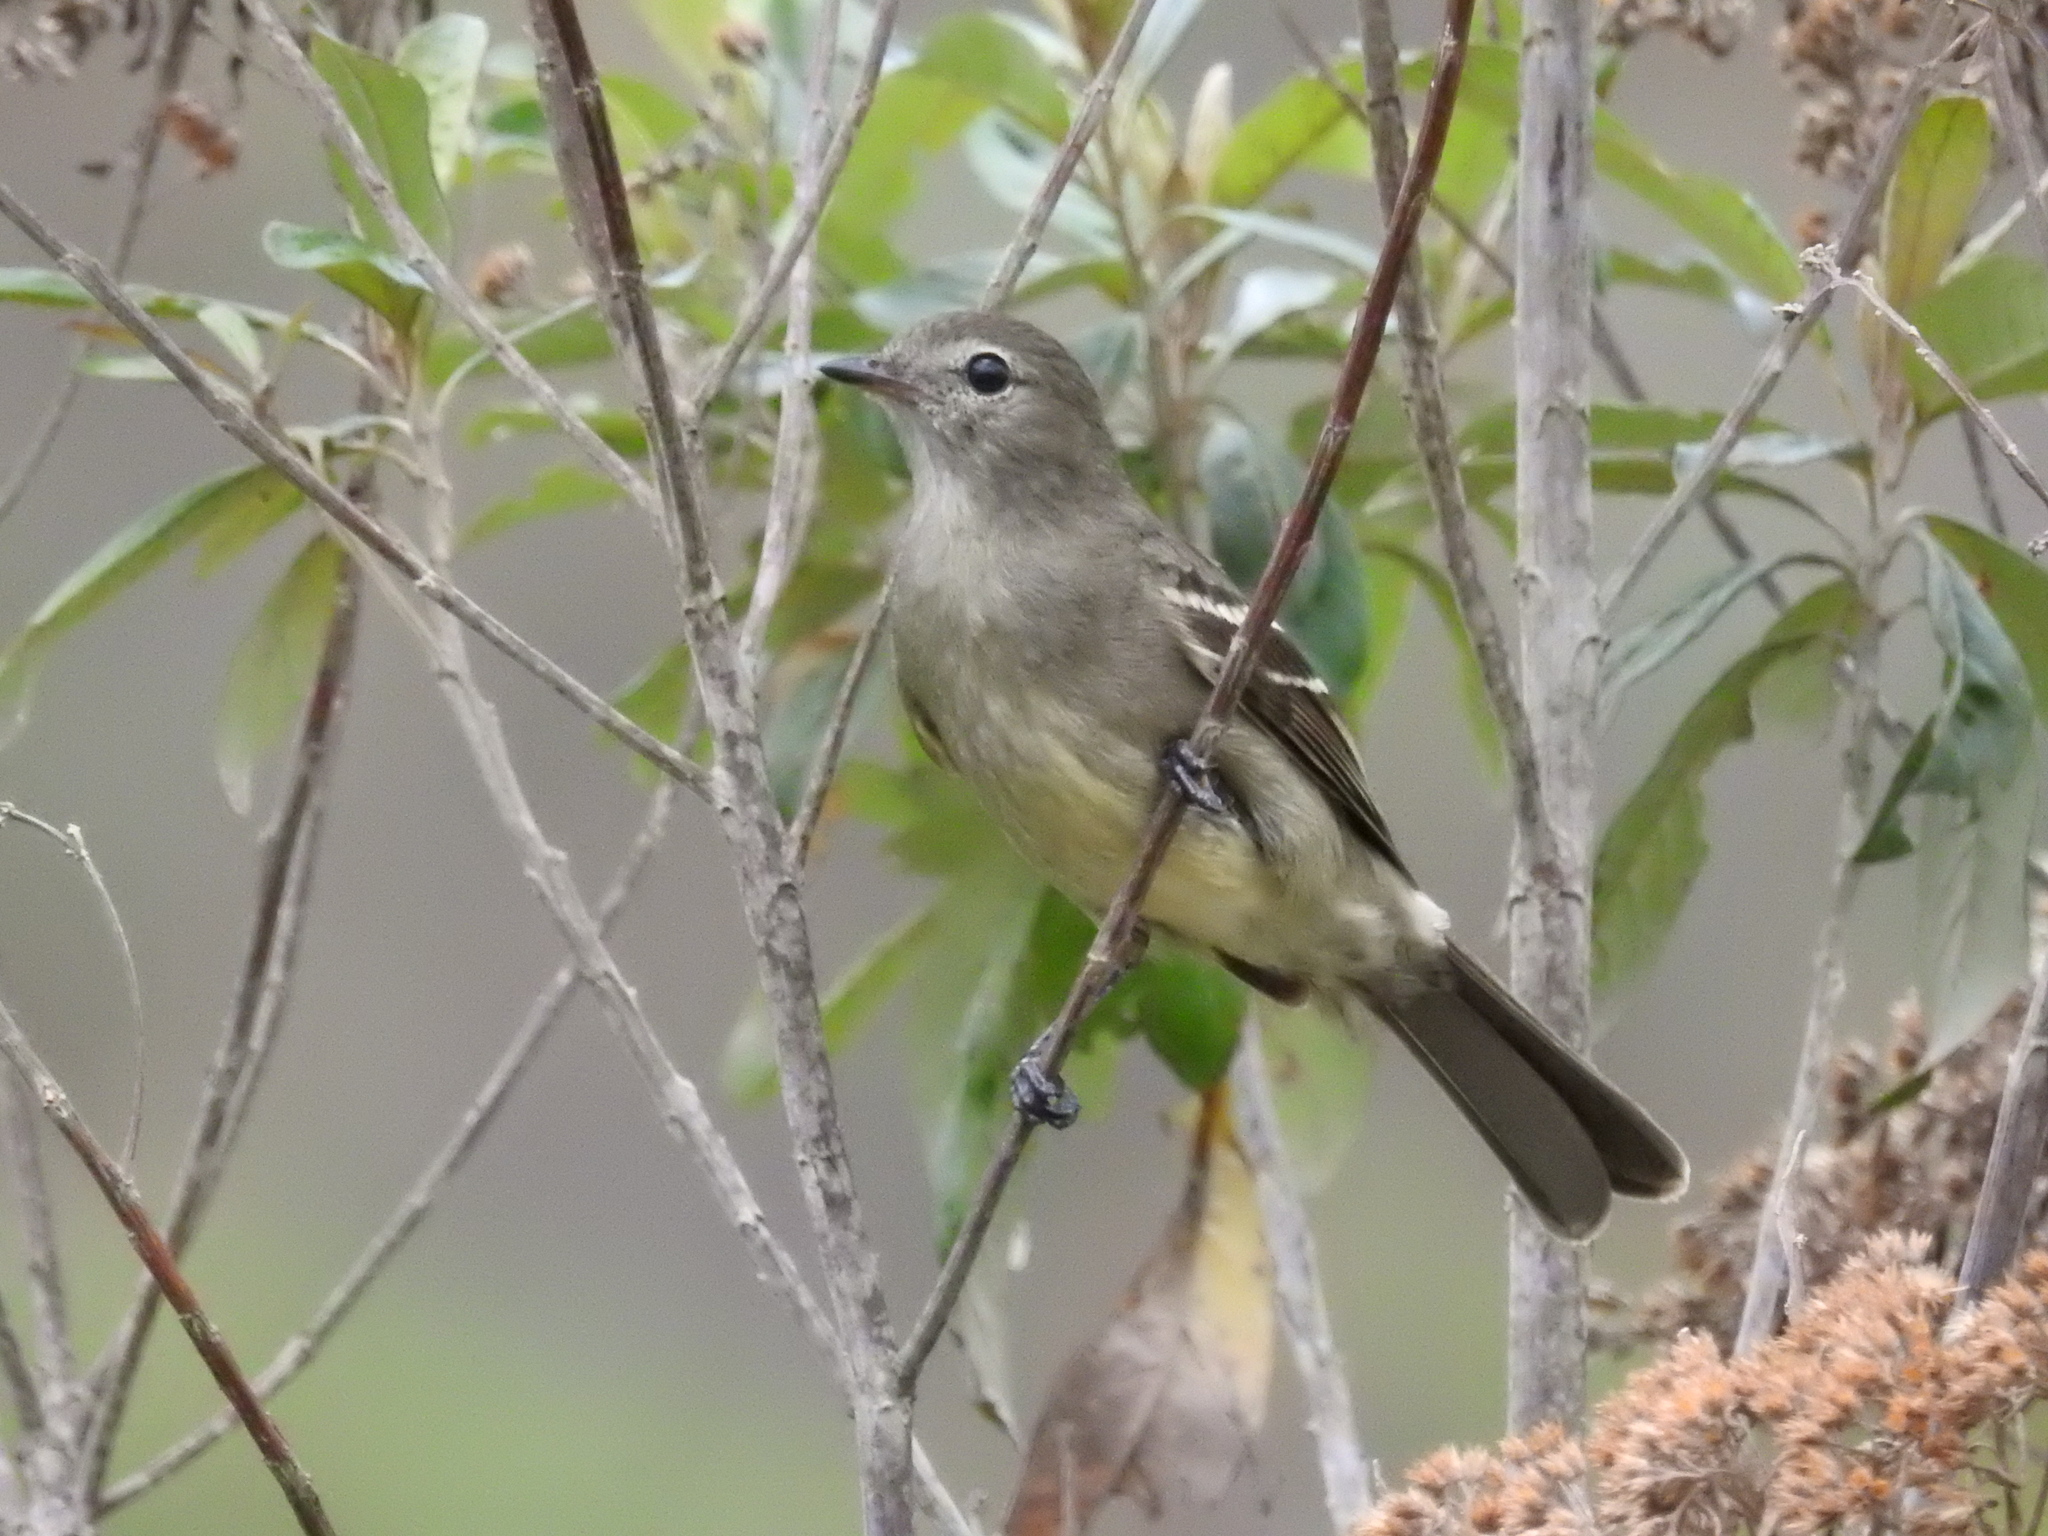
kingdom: Animalia
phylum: Chordata
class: Aves
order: Passeriformes
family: Tyrannidae
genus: Elaenia
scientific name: Elaenia sordida
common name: Small-headed elaenia
